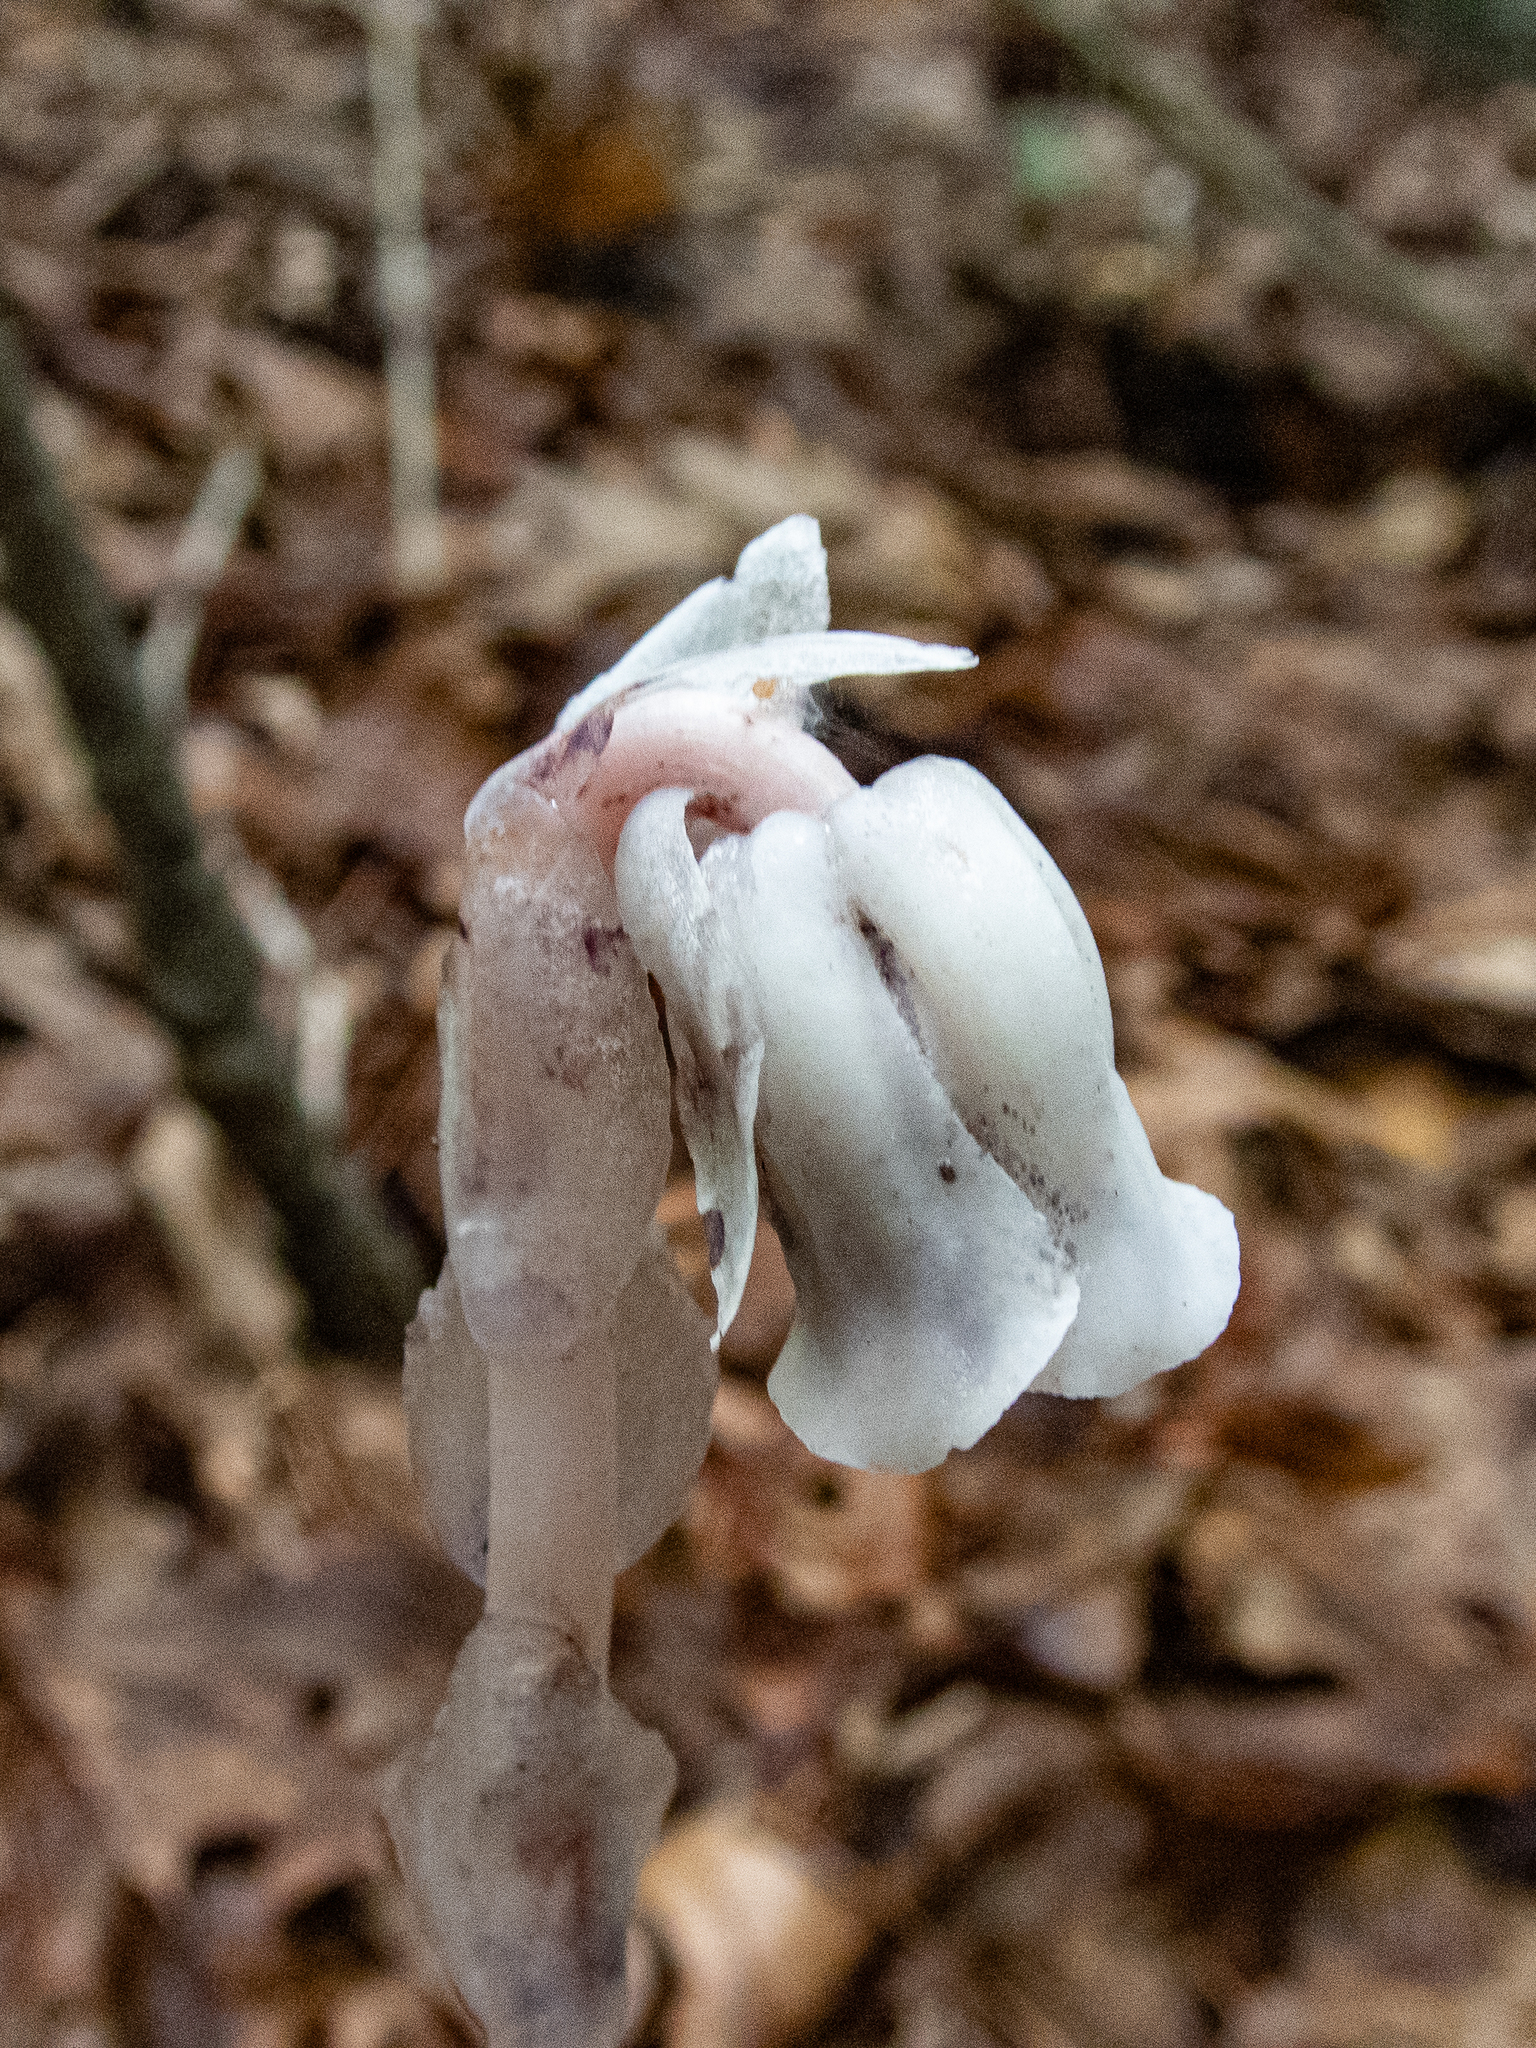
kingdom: Plantae
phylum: Tracheophyta
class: Magnoliopsida
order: Ericales
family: Ericaceae
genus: Monotropa
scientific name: Monotropa uniflora
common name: Convulsion root
